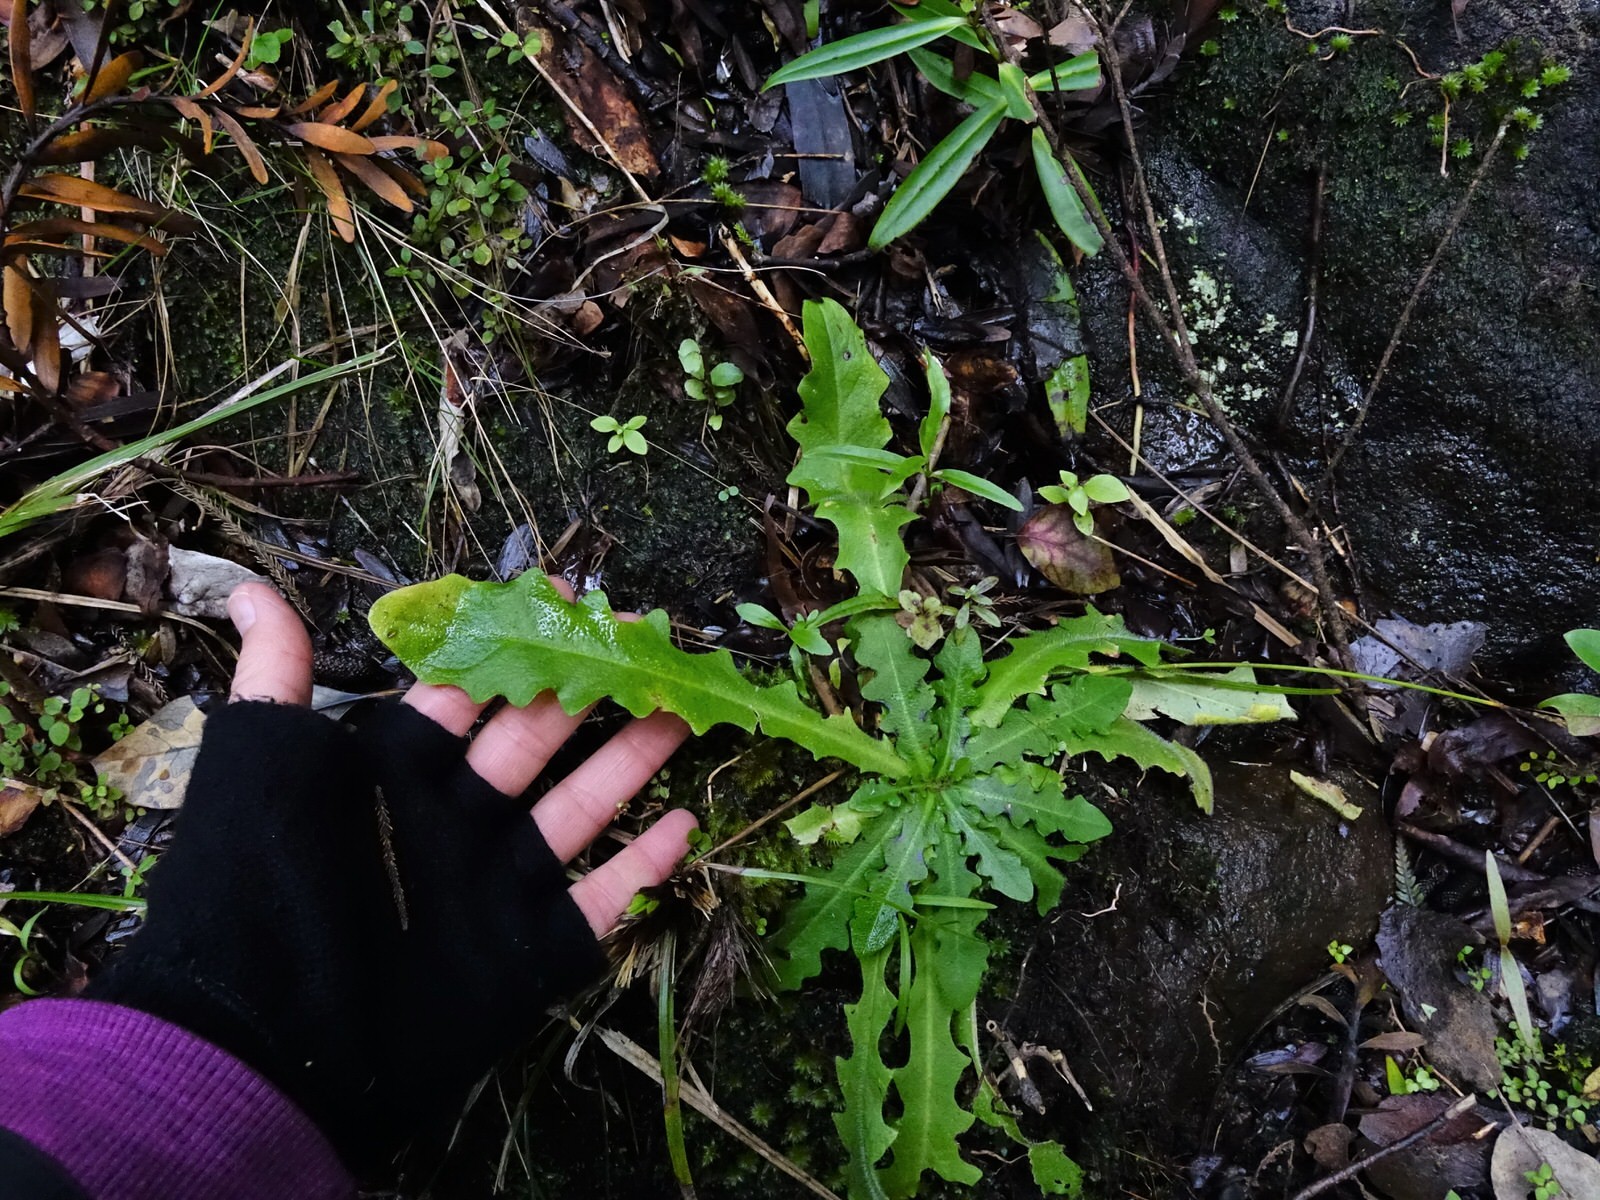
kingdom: Plantae
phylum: Tracheophyta
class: Magnoliopsida
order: Asterales
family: Asteraceae
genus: Hypochaeris
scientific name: Hypochaeris radicata
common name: Flatweed
